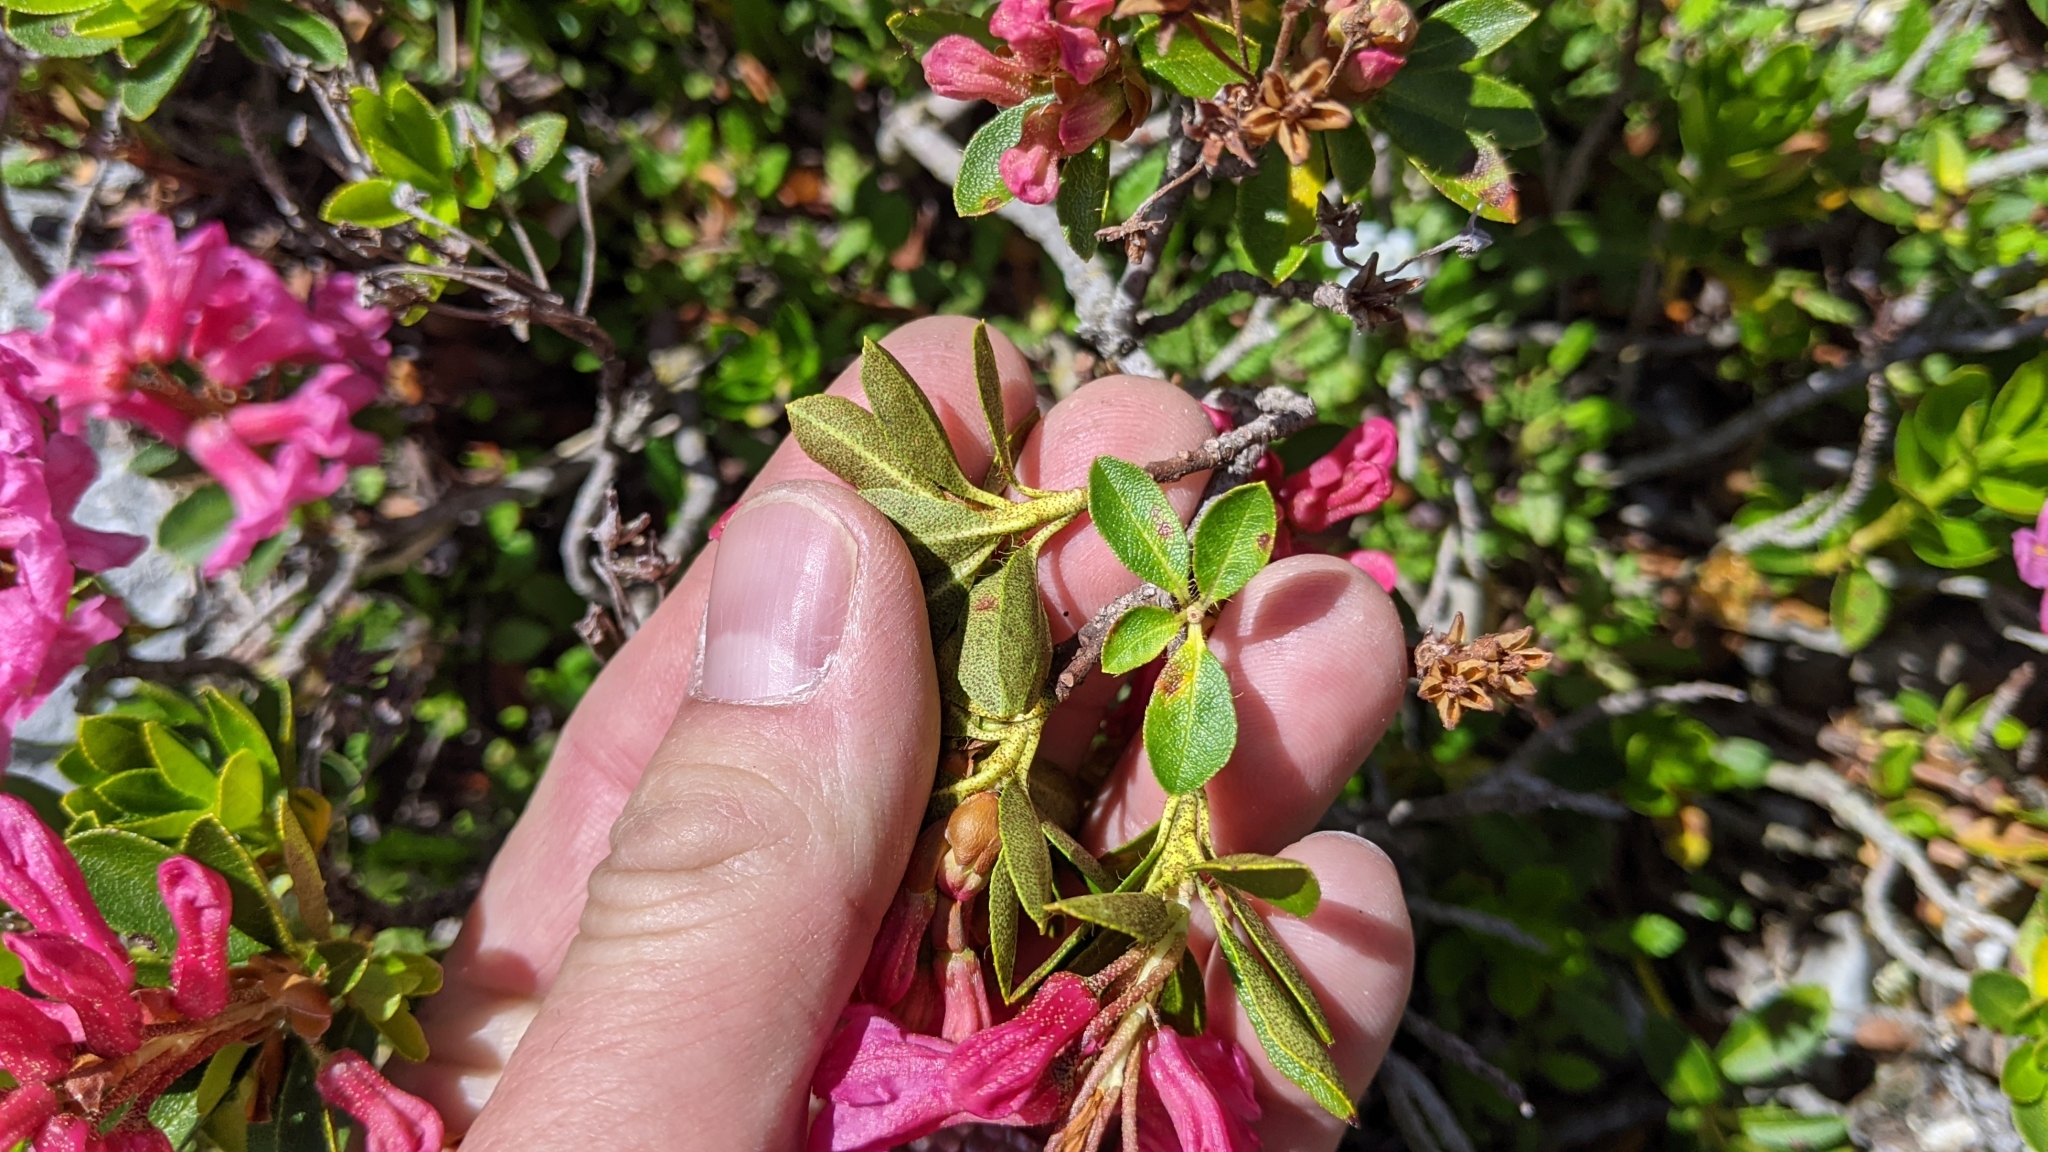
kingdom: Plantae
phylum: Tracheophyta
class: Magnoliopsida
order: Ericales
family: Ericaceae
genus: Rhododendron
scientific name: Rhododendron ferrugineum
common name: Alpenrose
